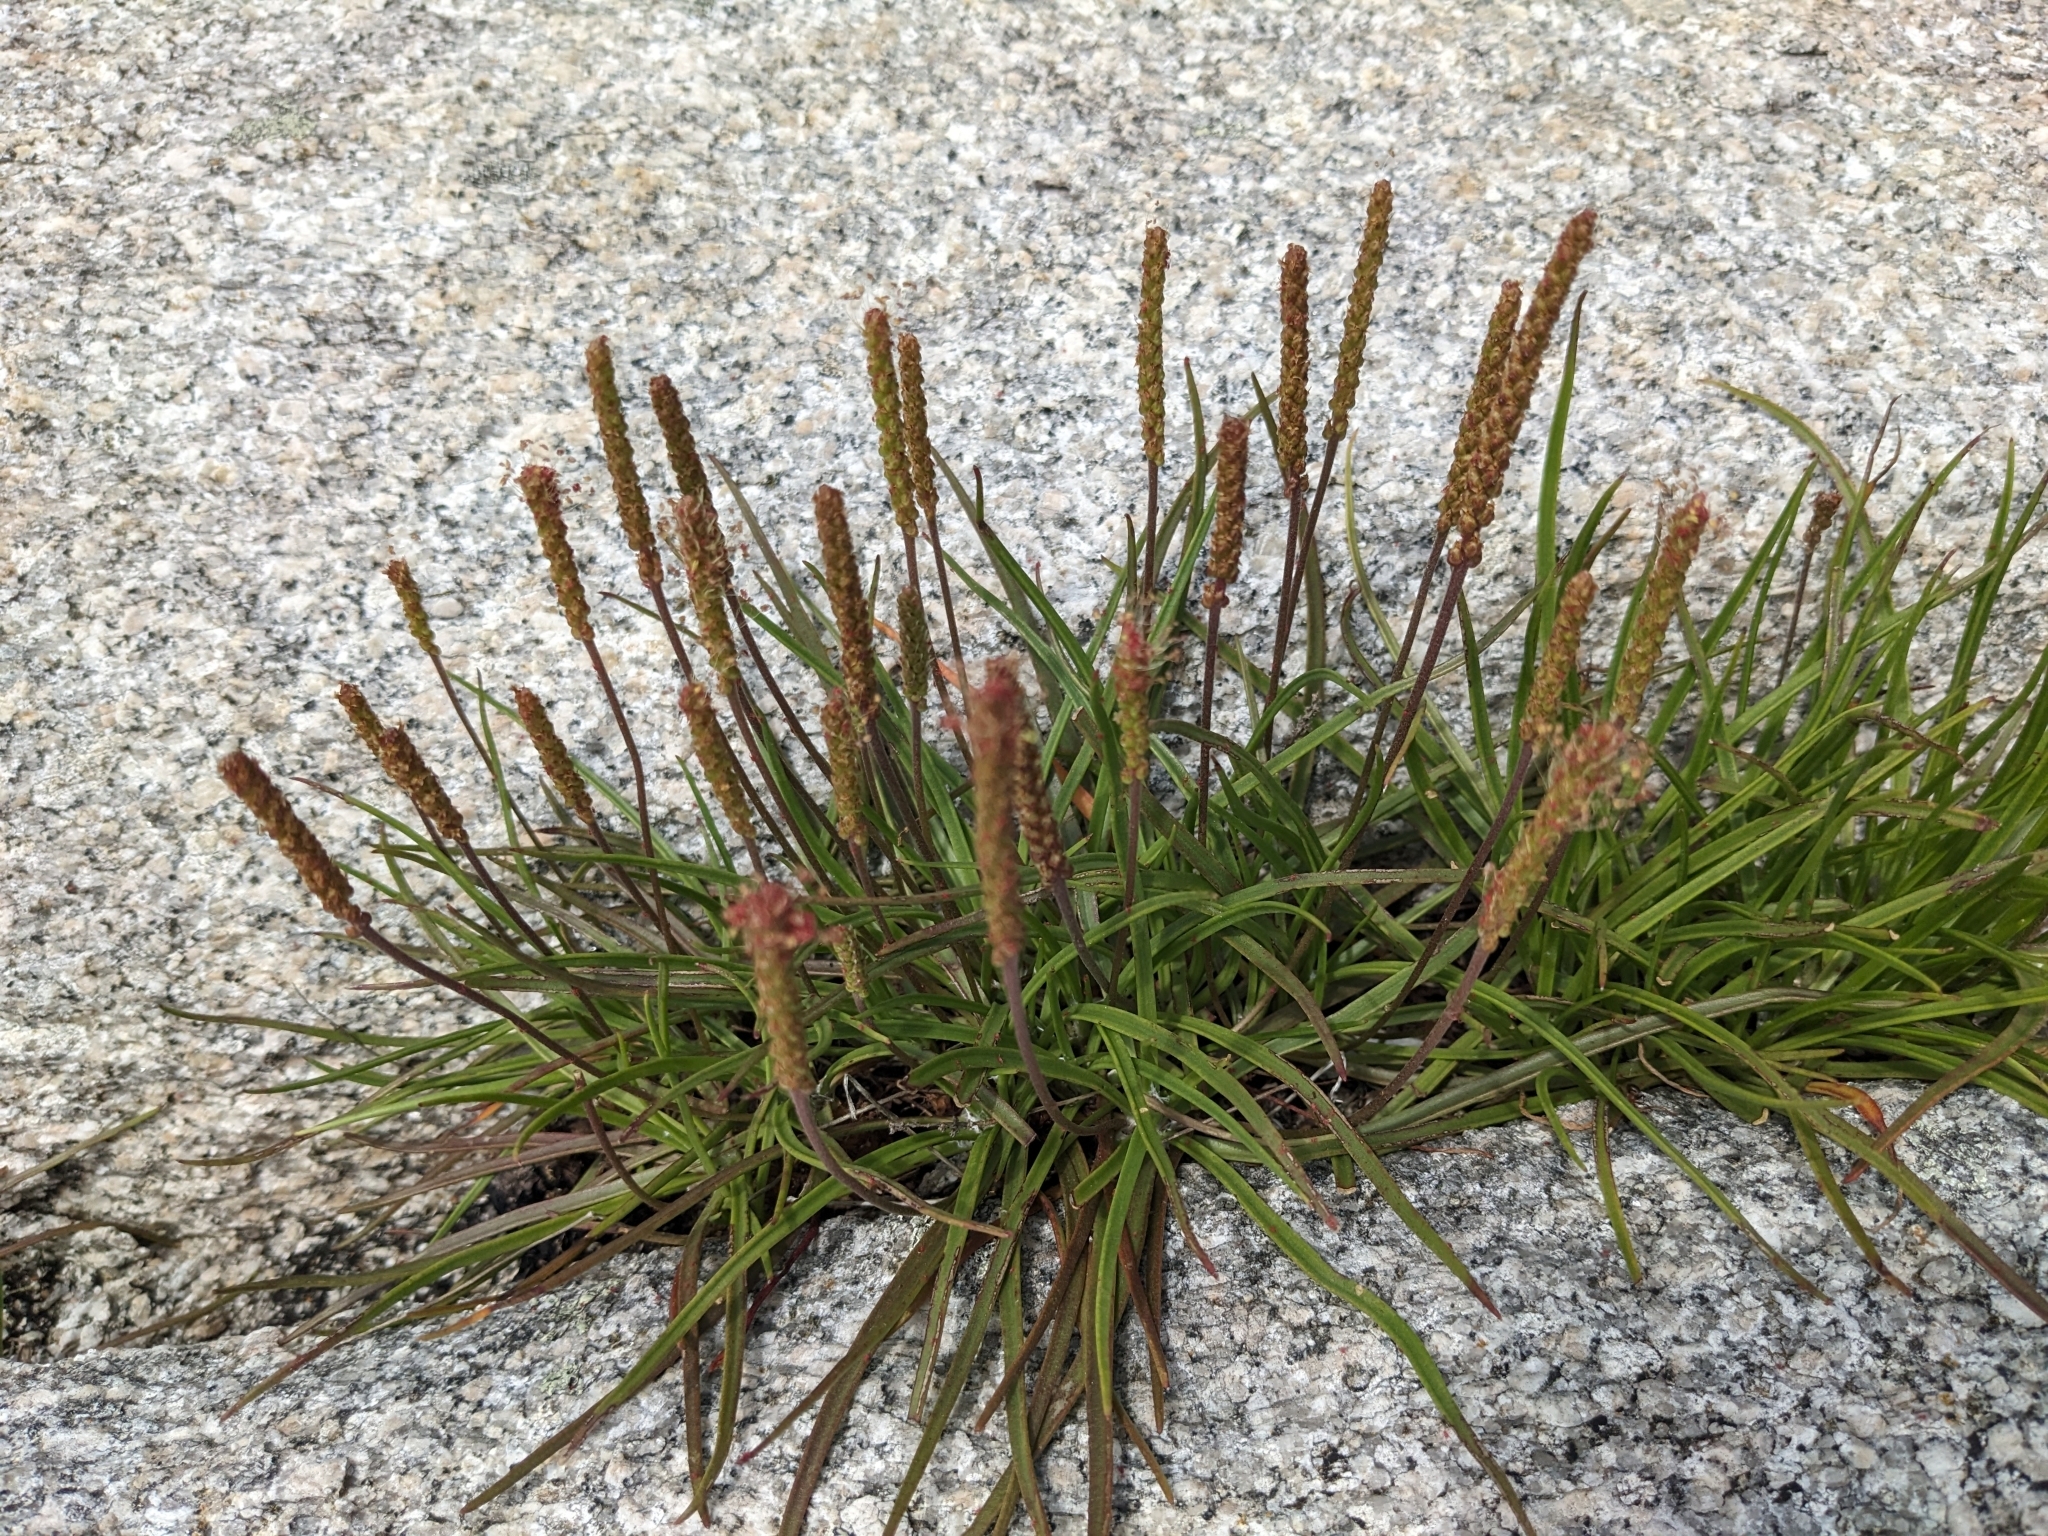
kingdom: Plantae
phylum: Tracheophyta
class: Magnoliopsida
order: Lamiales
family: Plantaginaceae
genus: Plantago
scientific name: Plantago maritima
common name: Sea plantain
